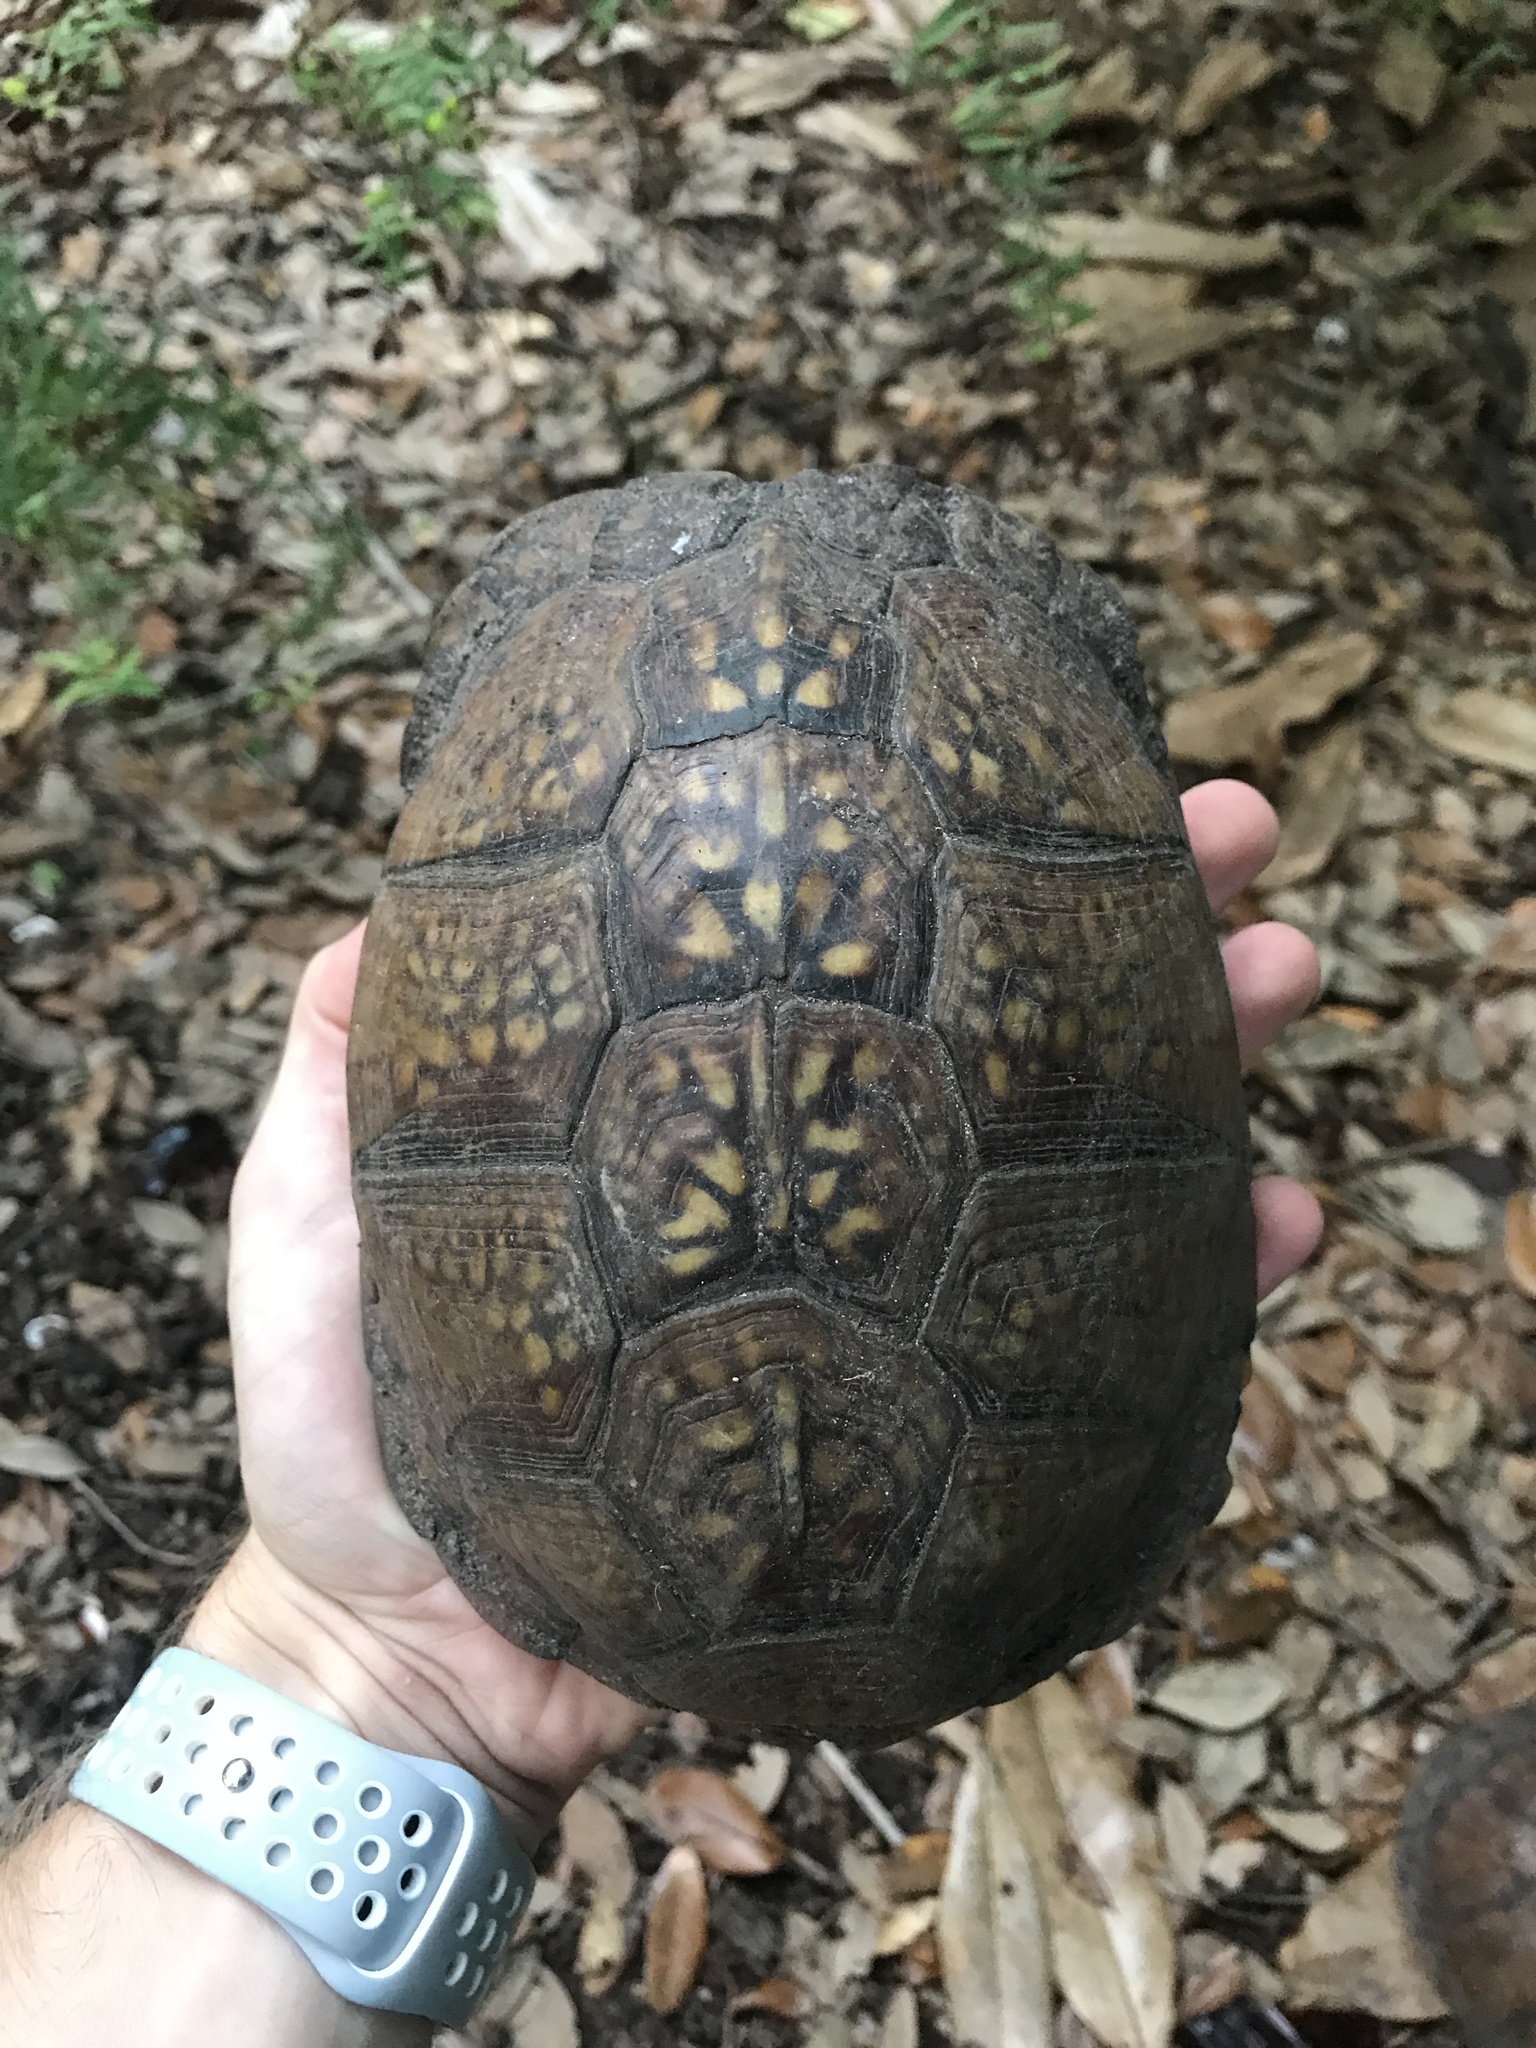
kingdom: Animalia
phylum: Chordata
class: Testudines
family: Emydidae
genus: Terrapene
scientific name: Terrapene carolina
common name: Common box turtle
